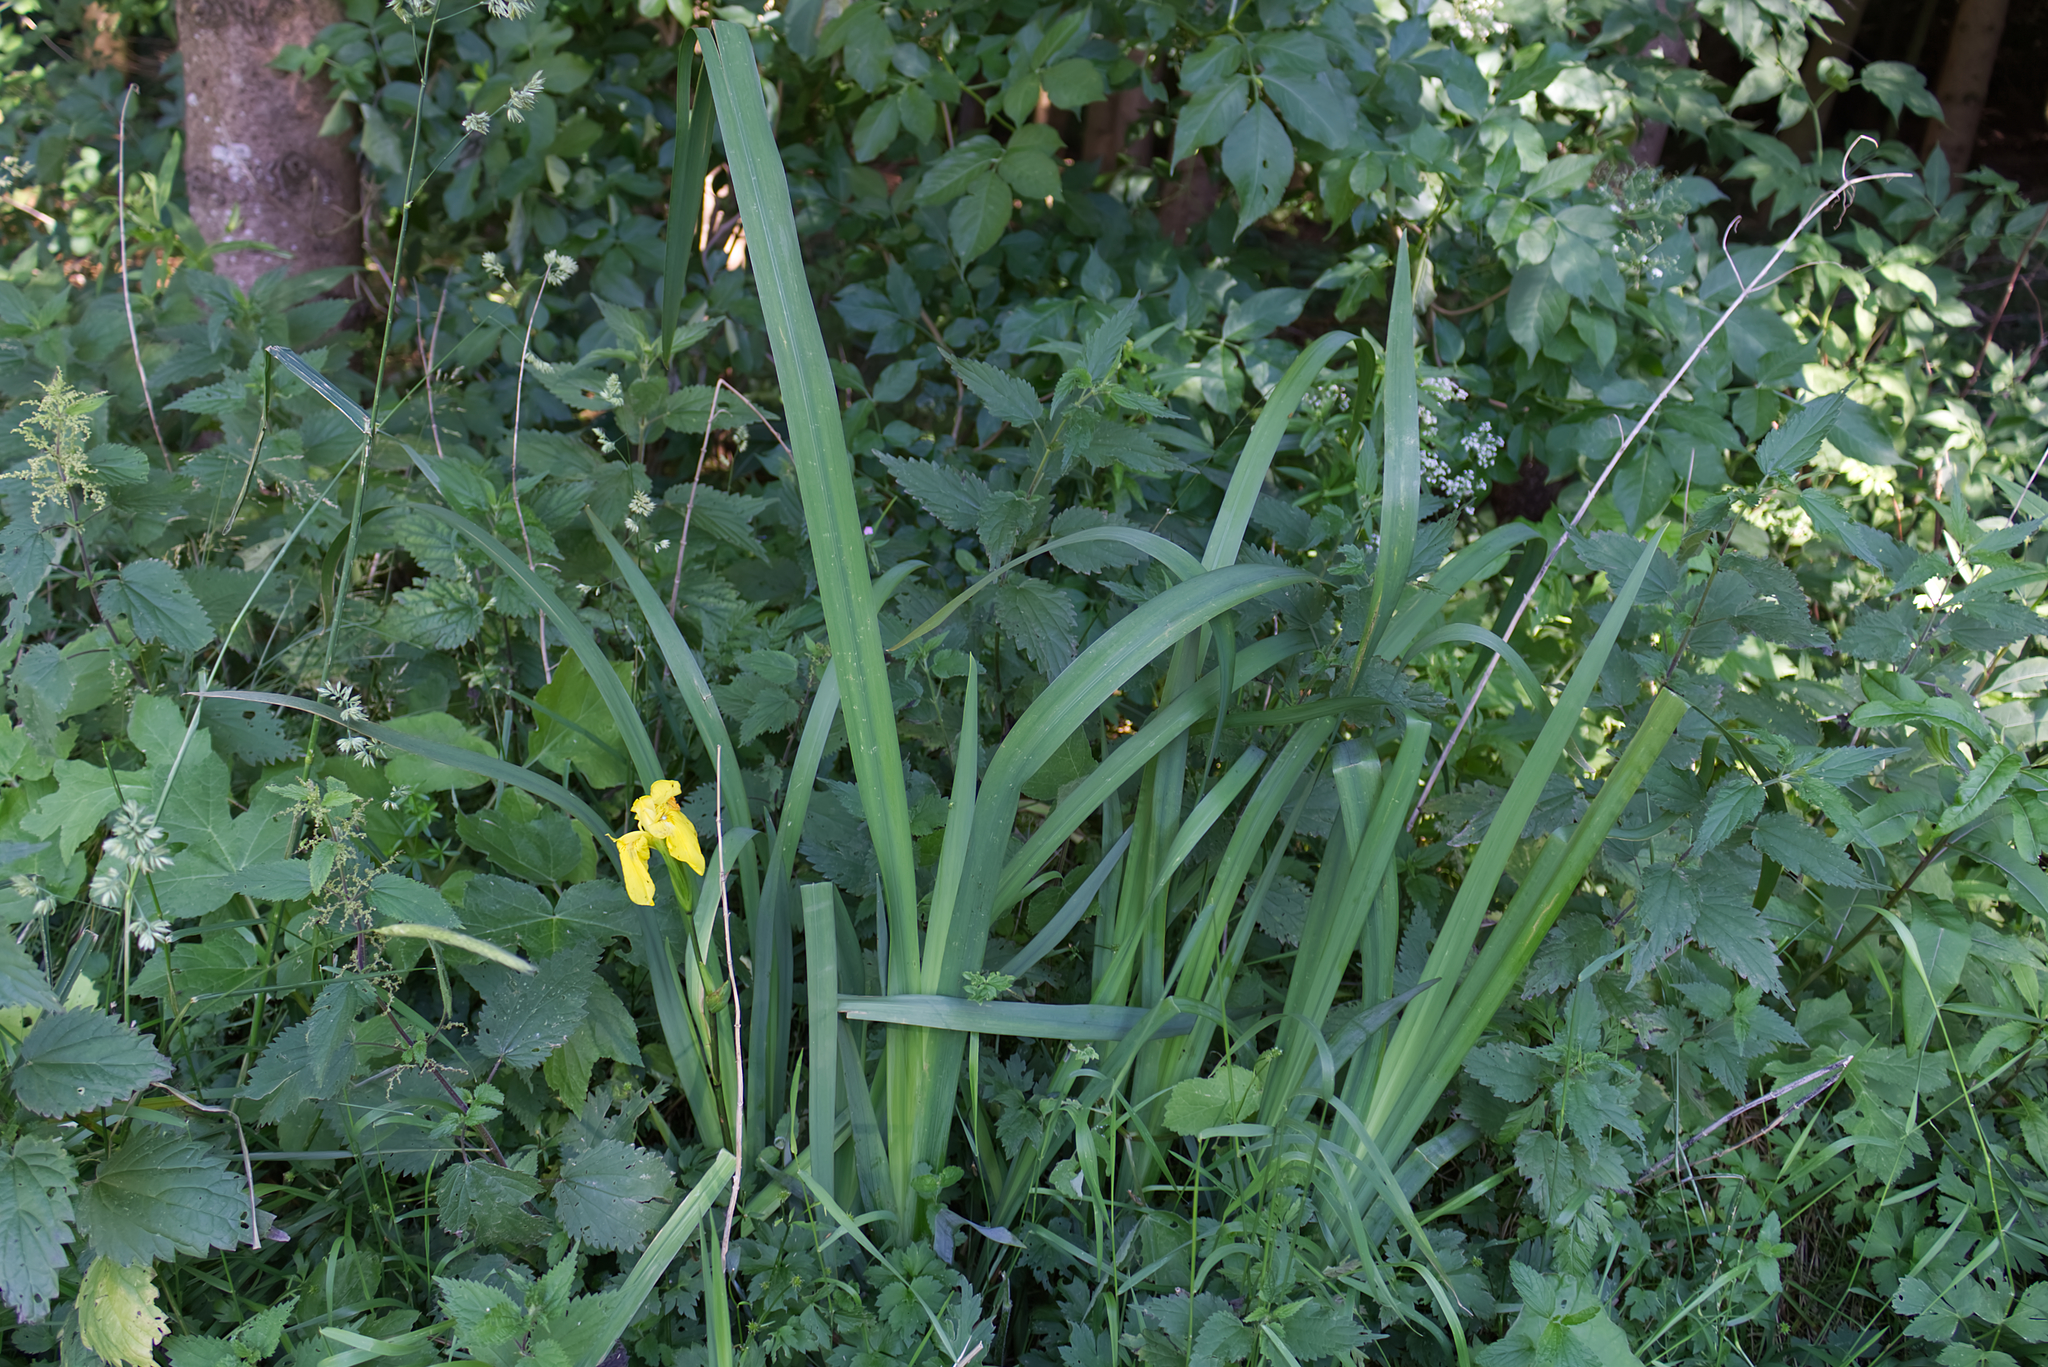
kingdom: Plantae
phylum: Tracheophyta
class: Liliopsida
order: Asparagales
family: Iridaceae
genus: Iris
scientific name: Iris pseudacorus
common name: Yellow flag
